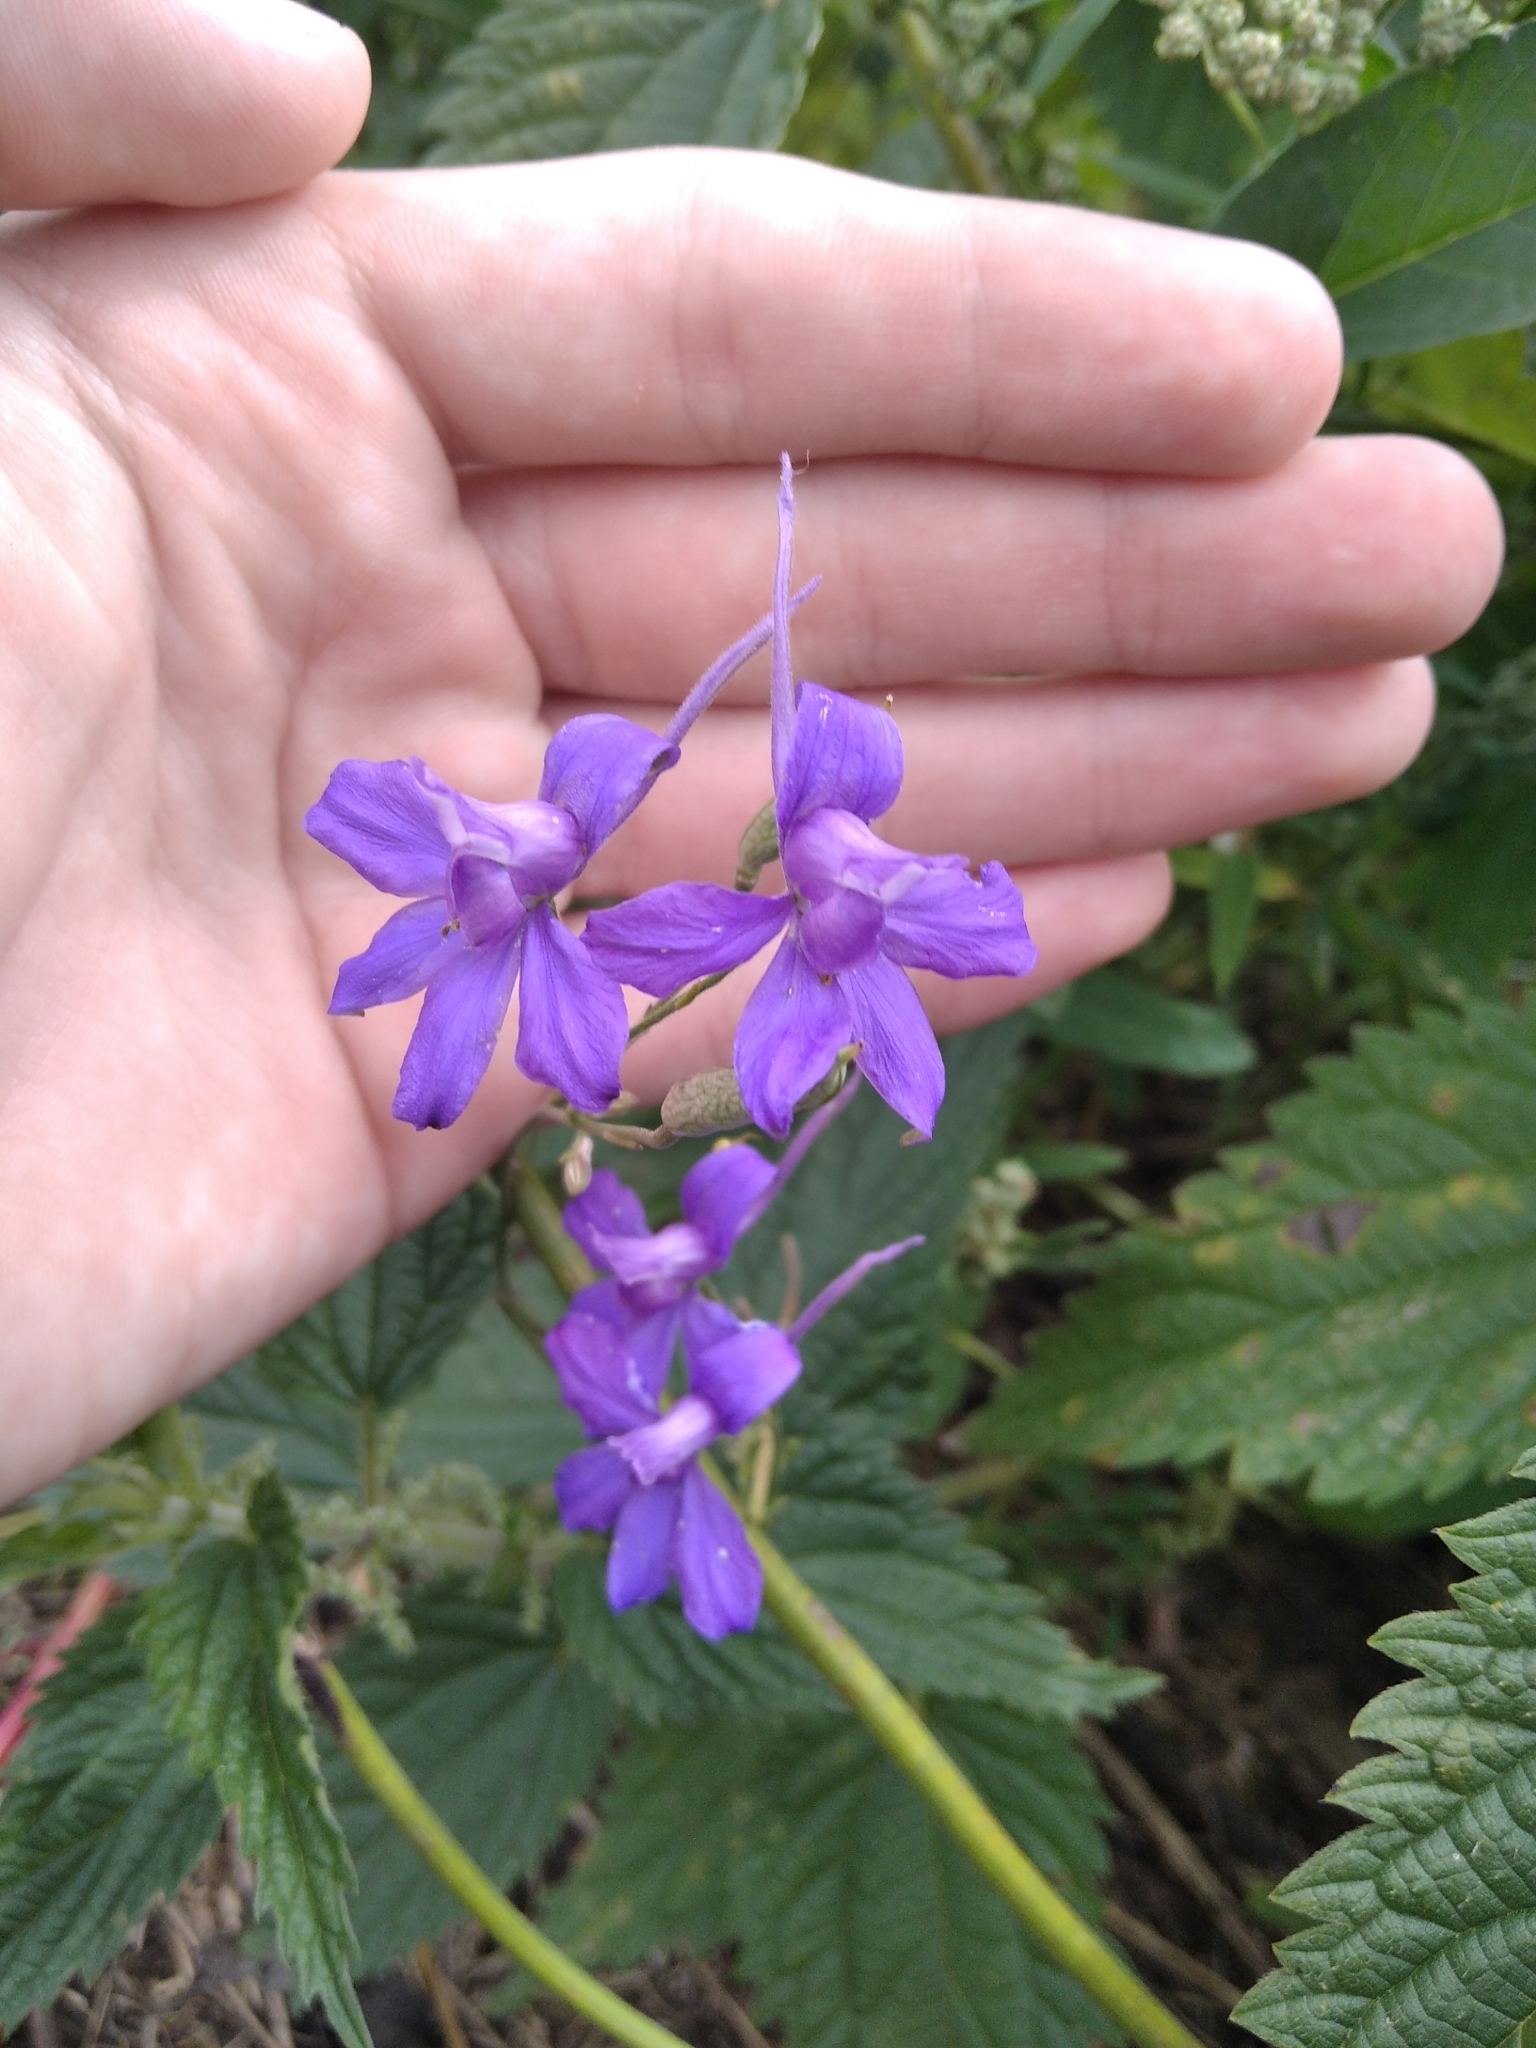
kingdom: Plantae
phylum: Tracheophyta
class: Magnoliopsida
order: Ranunculales
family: Ranunculaceae
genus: Delphinium
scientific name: Delphinium consolida
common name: Branching larkspur
